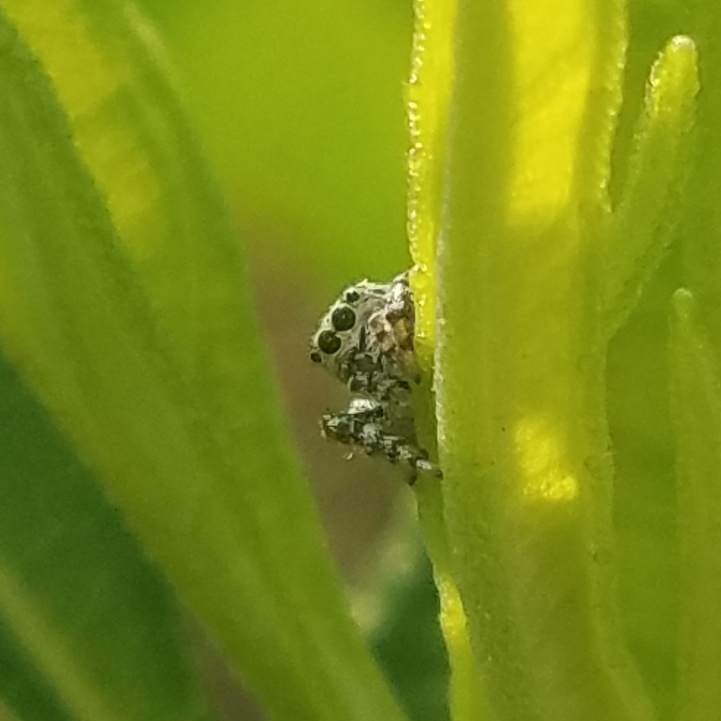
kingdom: Animalia
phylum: Arthropoda
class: Arachnida
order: Araneae
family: Salticidae
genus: Pelegrina
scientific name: Pelegrina galathea
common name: Jumping spiders
